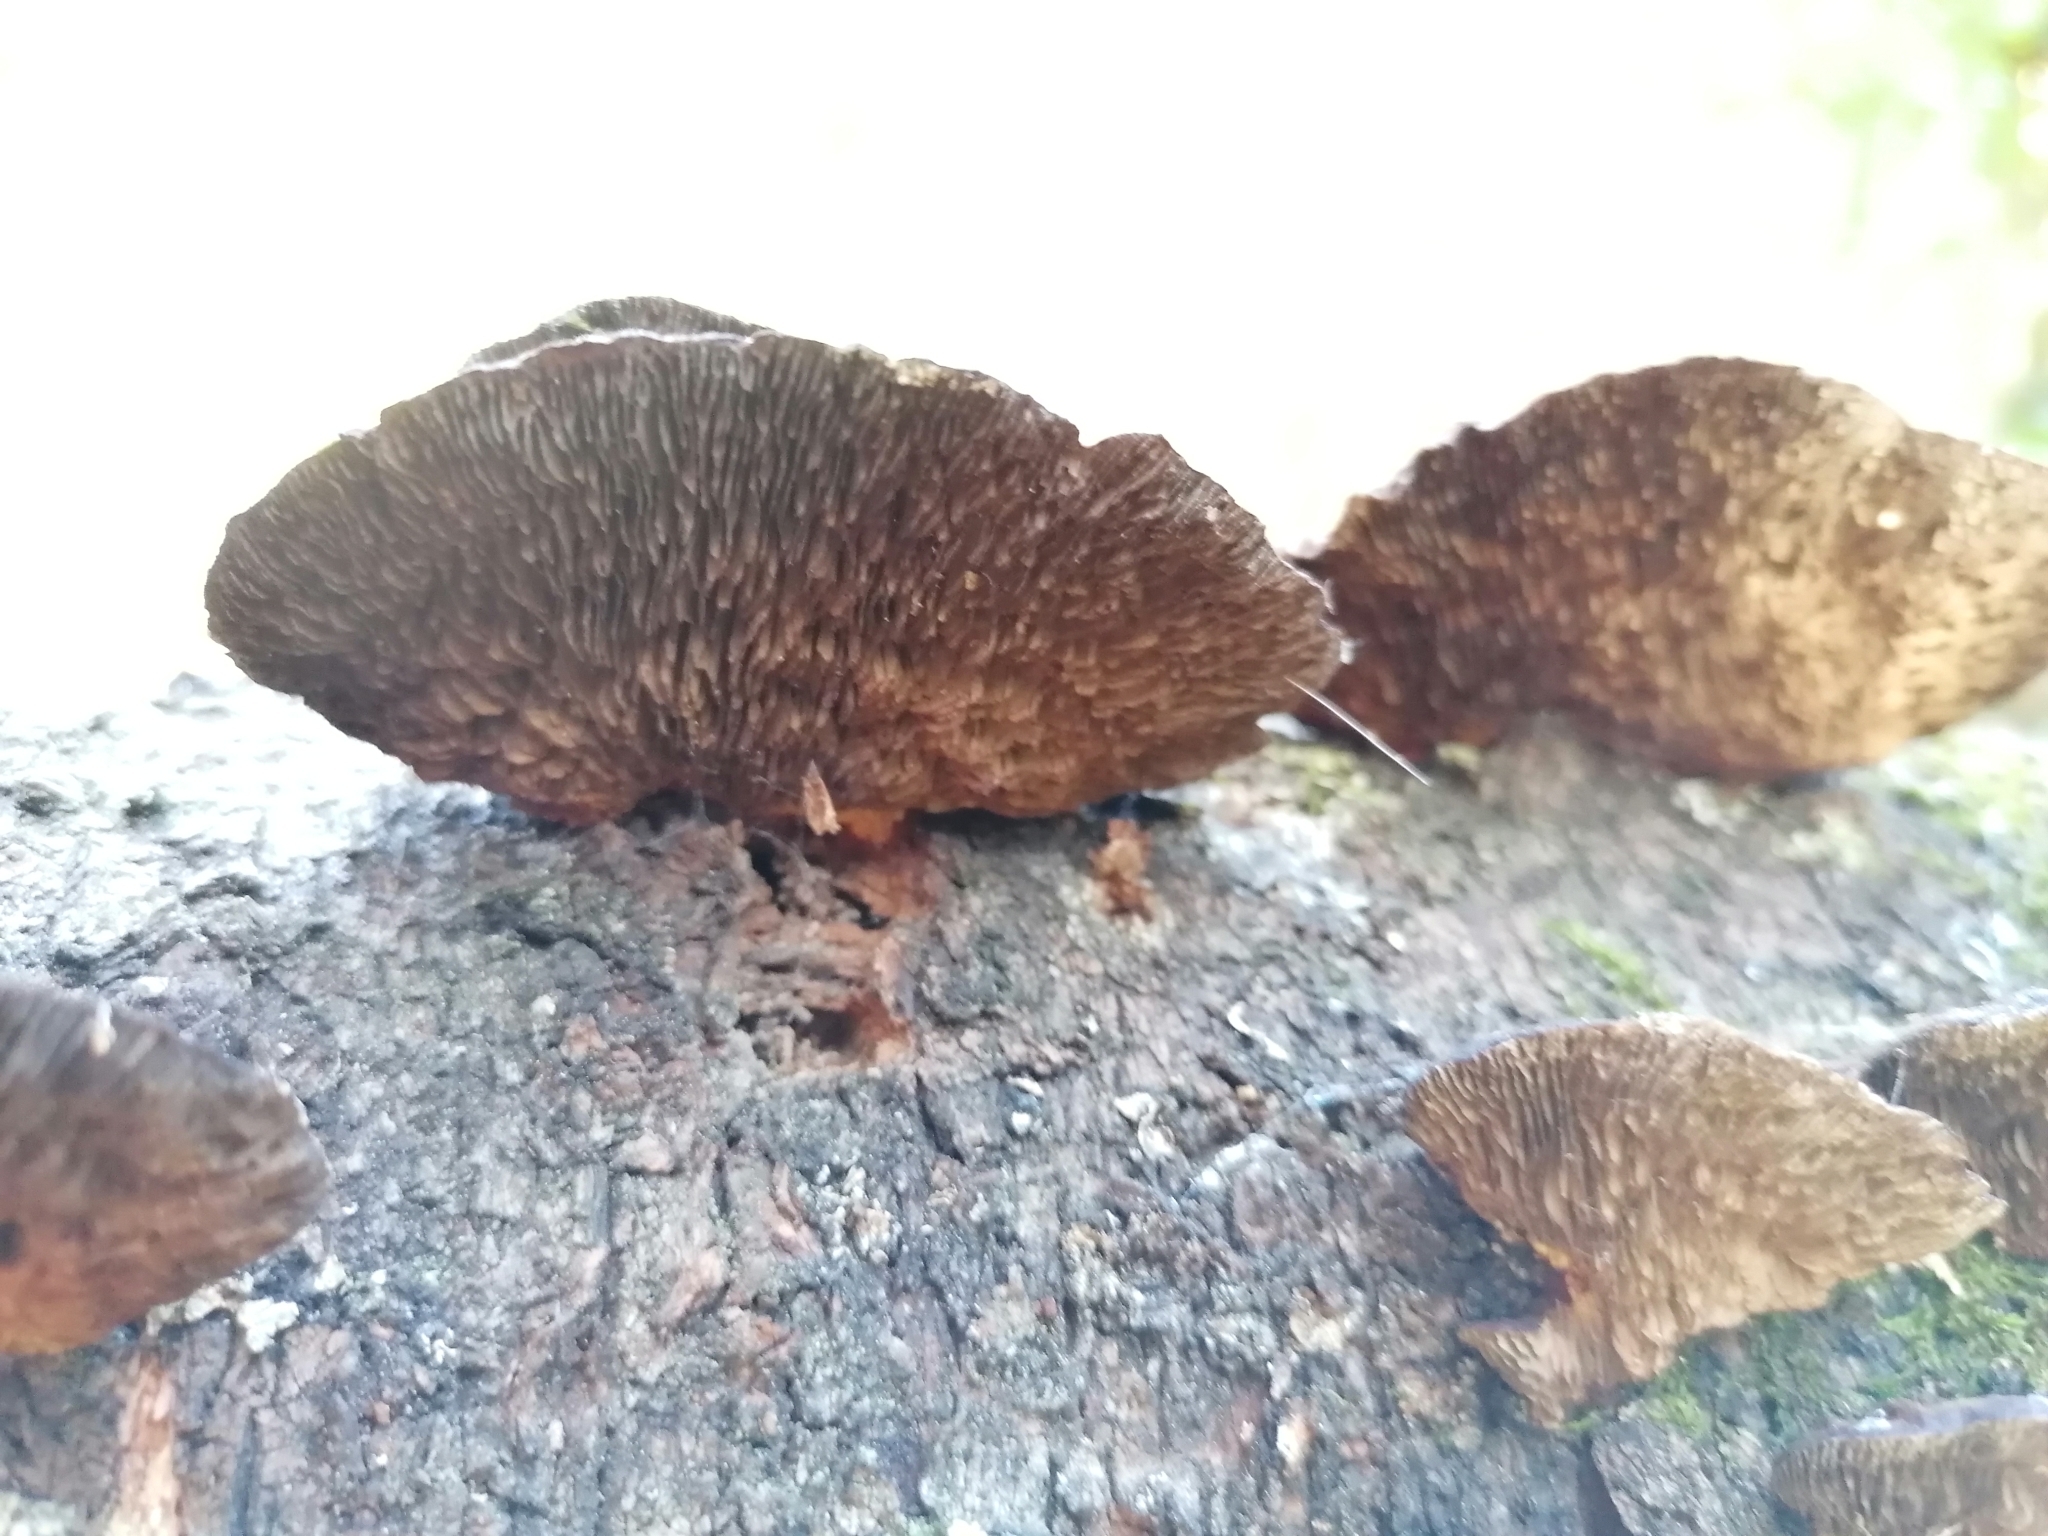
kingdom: Fungi
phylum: Basidiomycota
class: Agaricomycetes
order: Polyporales
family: Polyporaceae
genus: Daedaleopsis
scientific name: Daedaleopsis tricolor
